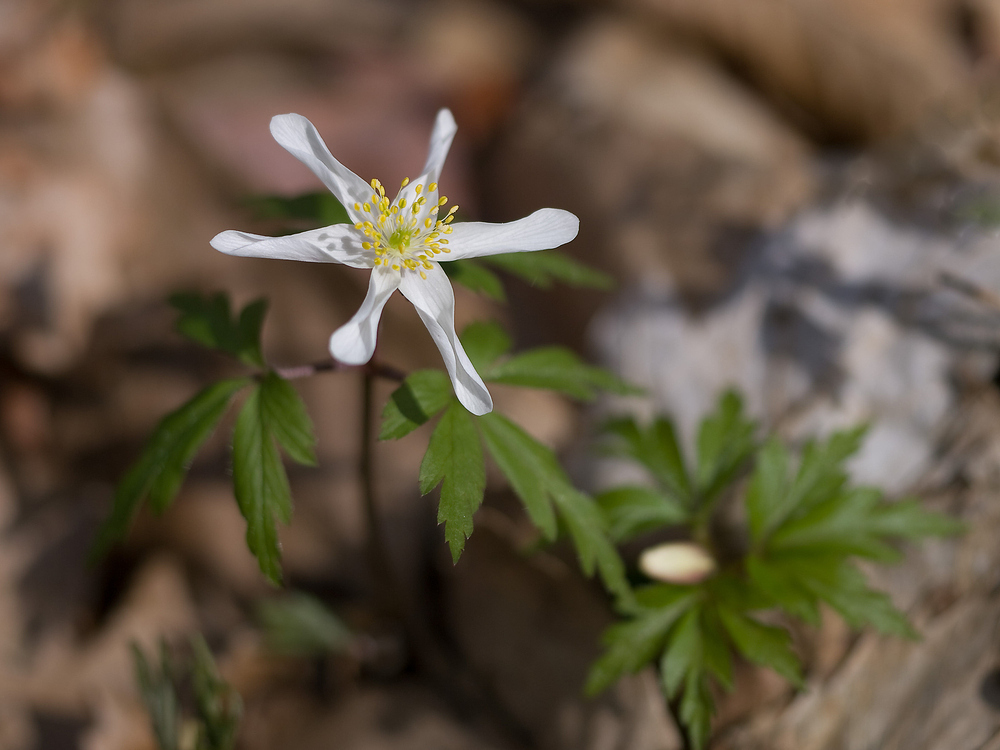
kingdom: Plantae
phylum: Tracheophyta
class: Magnoliopsida
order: Ranunculales
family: Ranunculaceae
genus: Anemone
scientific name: Anemone nemorosa
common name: Wood anemone
